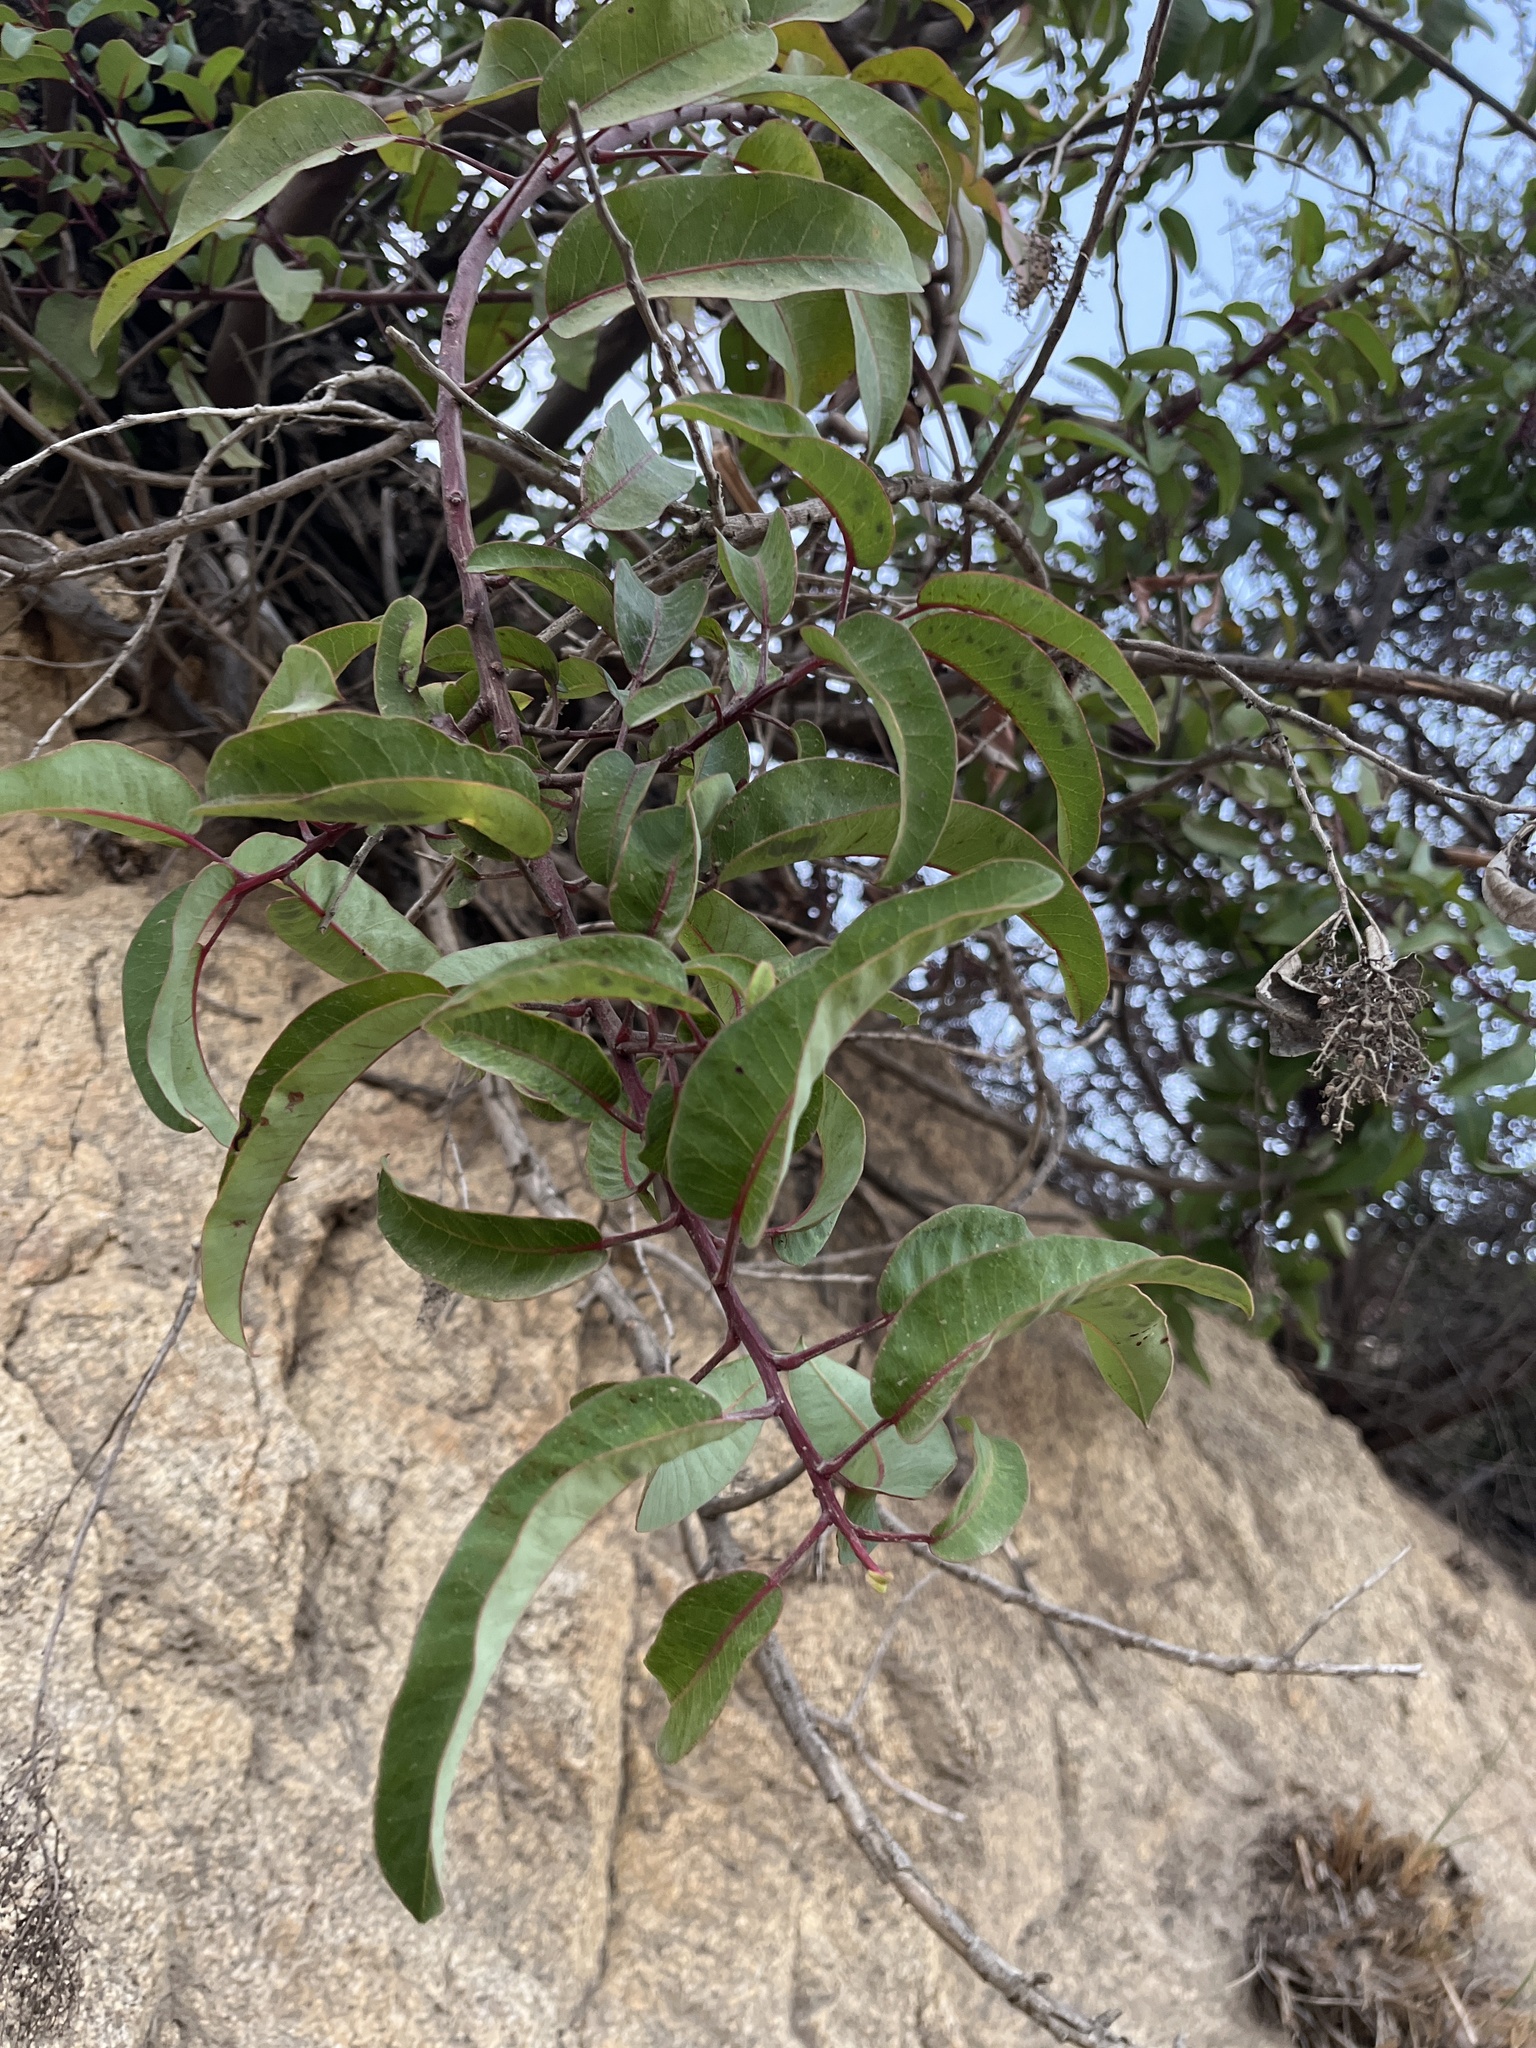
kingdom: Plantae
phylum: Tracheophyta
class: Magnoliopsida
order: Sapindales
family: Anacardiaceae
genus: Malosma
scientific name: Malosma laurina
